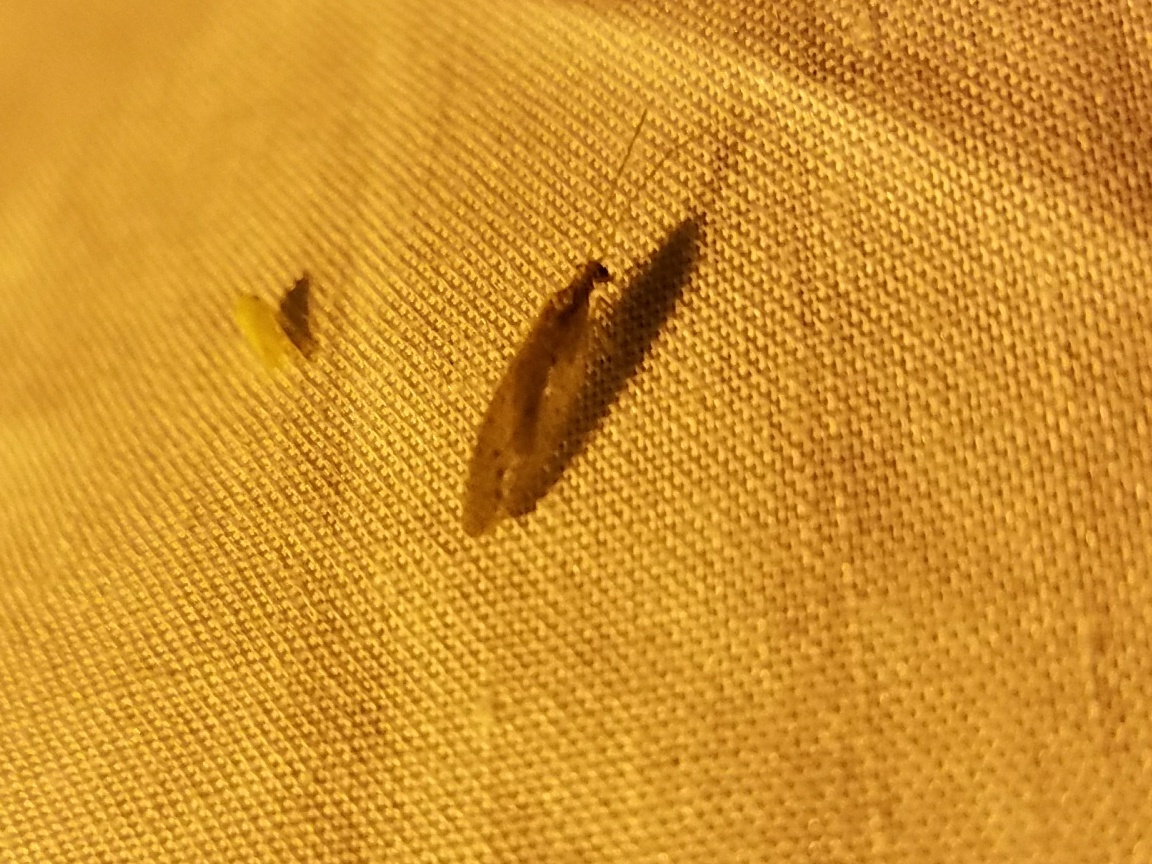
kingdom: Animalia
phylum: Arthropoda
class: Insecta
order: Neuroptera
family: Hemerobiidae
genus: Micromus
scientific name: Micromus subanticus
